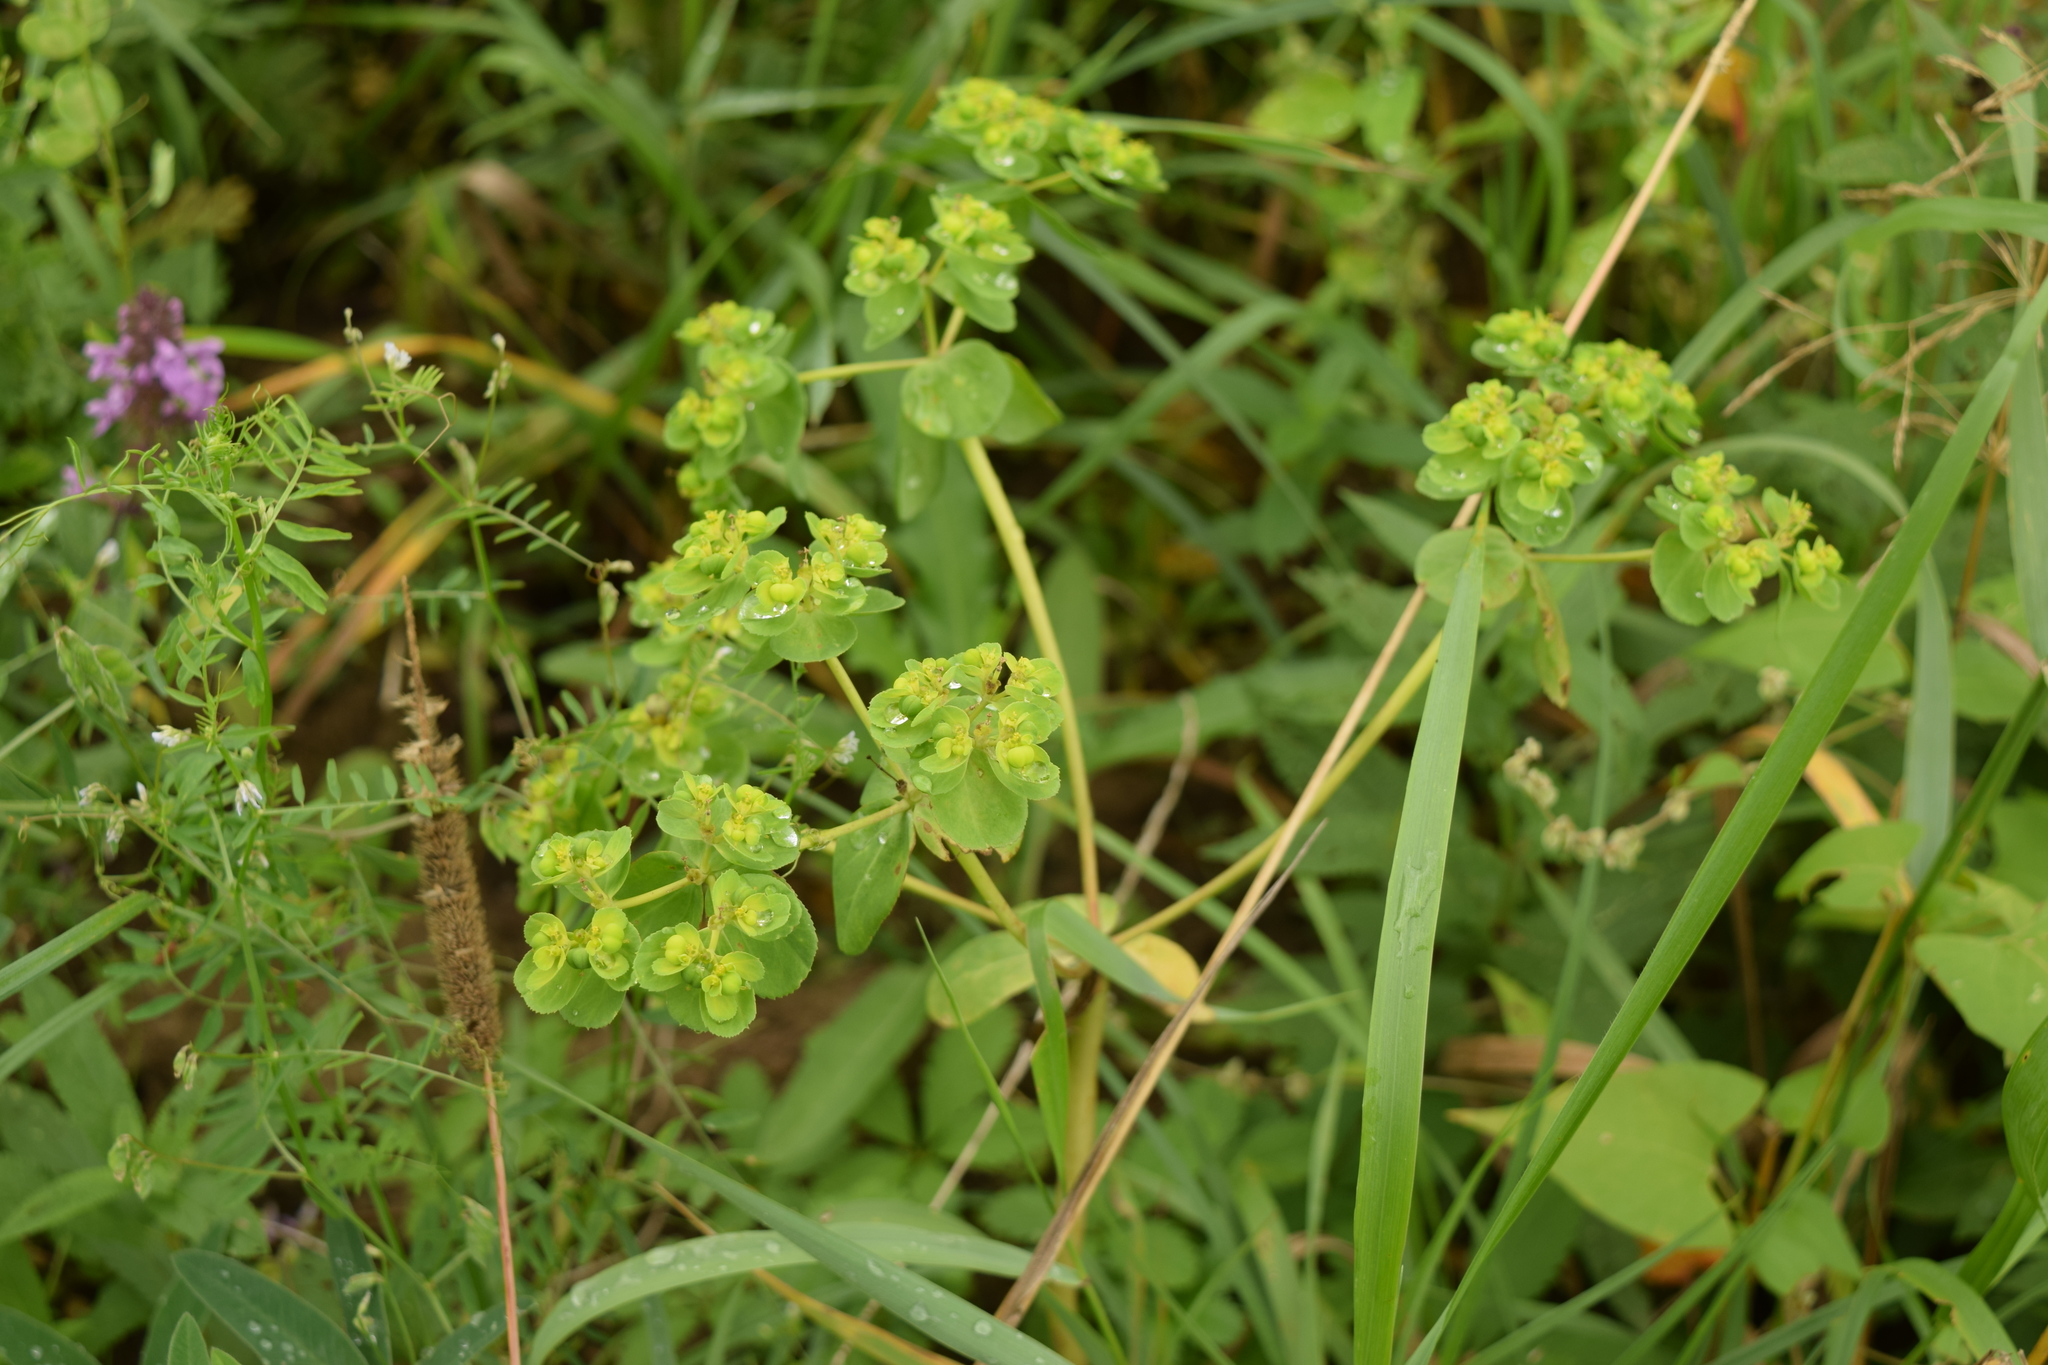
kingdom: Plantae
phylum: Tracheophyta
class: Magnoliopsida
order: Malpighiales
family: Euphorbiaceae
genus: Euphorbia
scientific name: Euphorbia helioscopia
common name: Sun spurge
